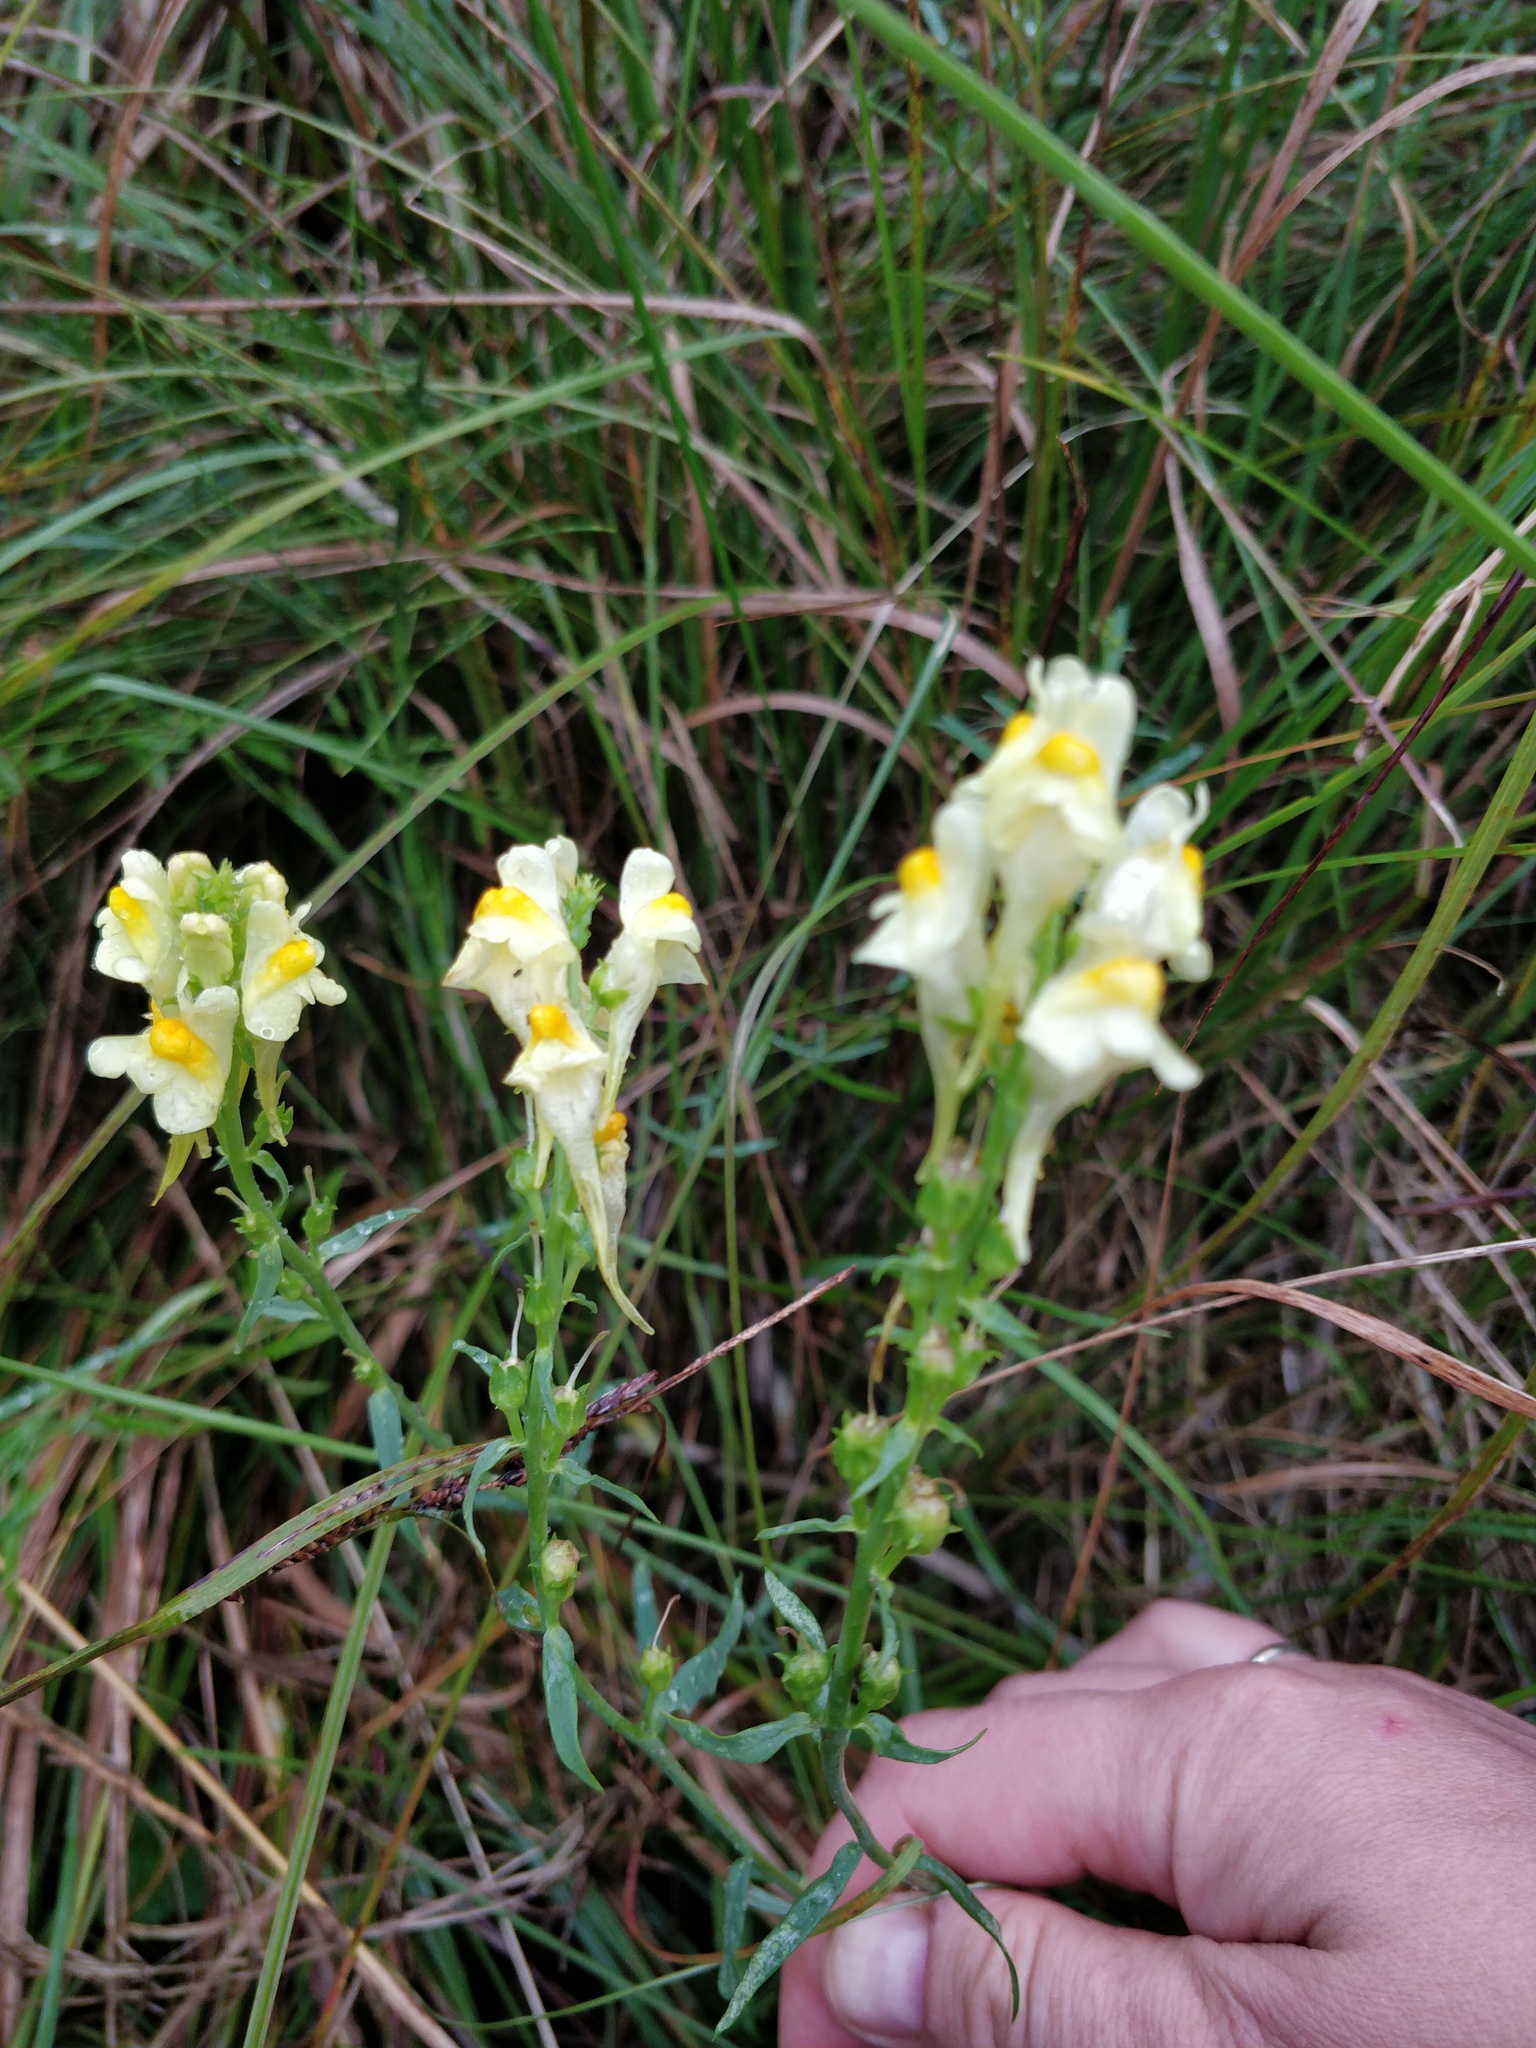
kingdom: Plantae
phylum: Tracheophyta
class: Magnoliopsida
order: Lamiales
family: Plantaginaceae
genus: Linaria
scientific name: Linaria vulgaris
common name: Butter and eggs
